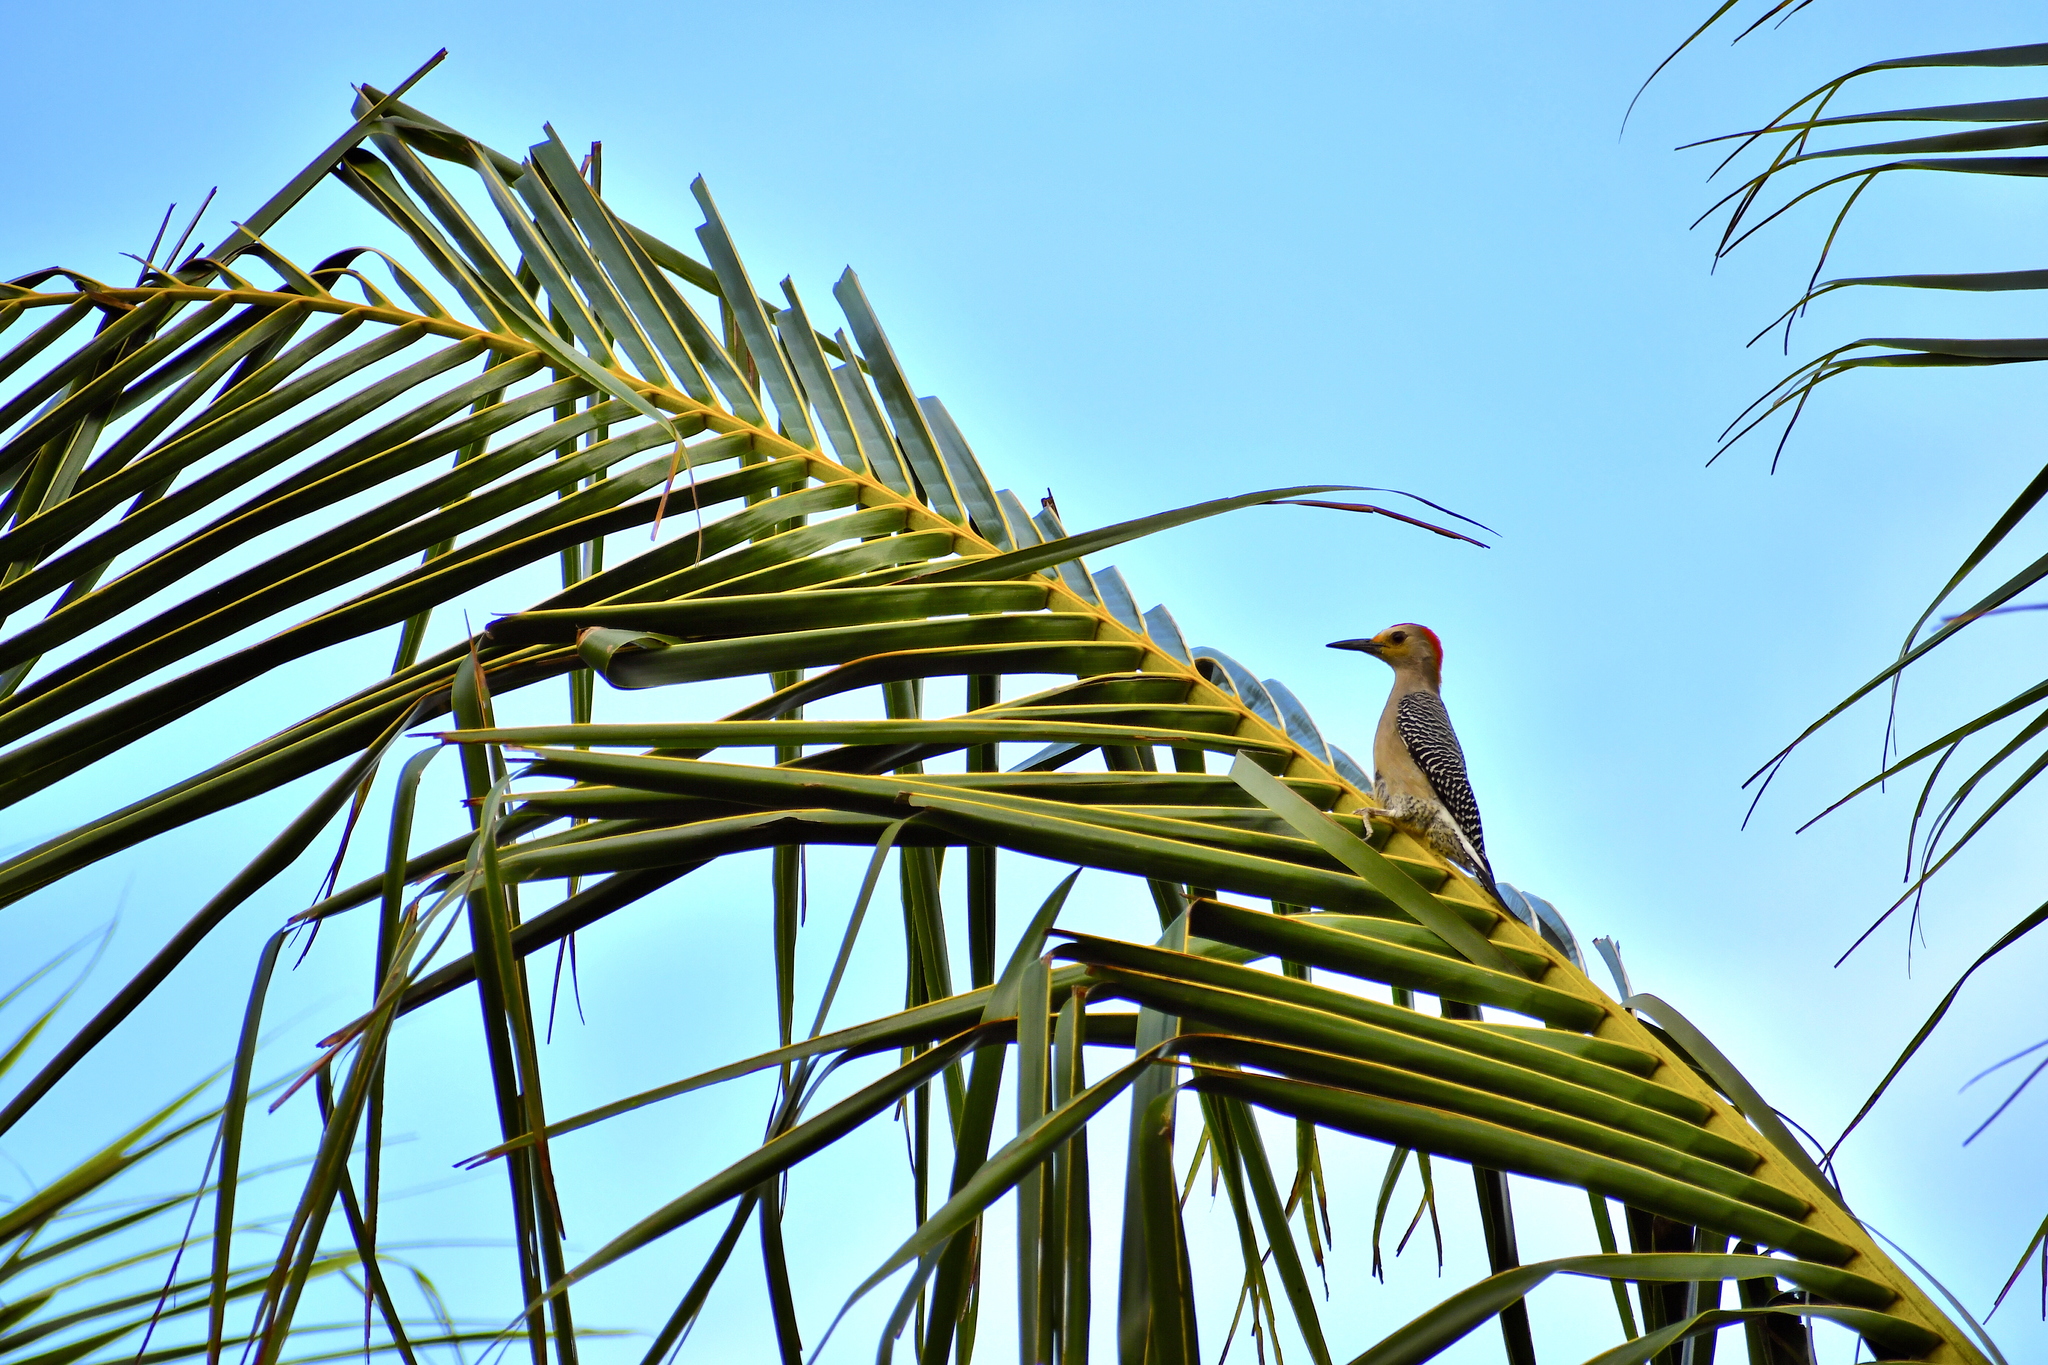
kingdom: Animalia
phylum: Chordata
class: Aves
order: Piciformes
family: Picidae
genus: Melanerpes
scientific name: Melanerpes aurifrons
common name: Golden-fronted woodpecker
